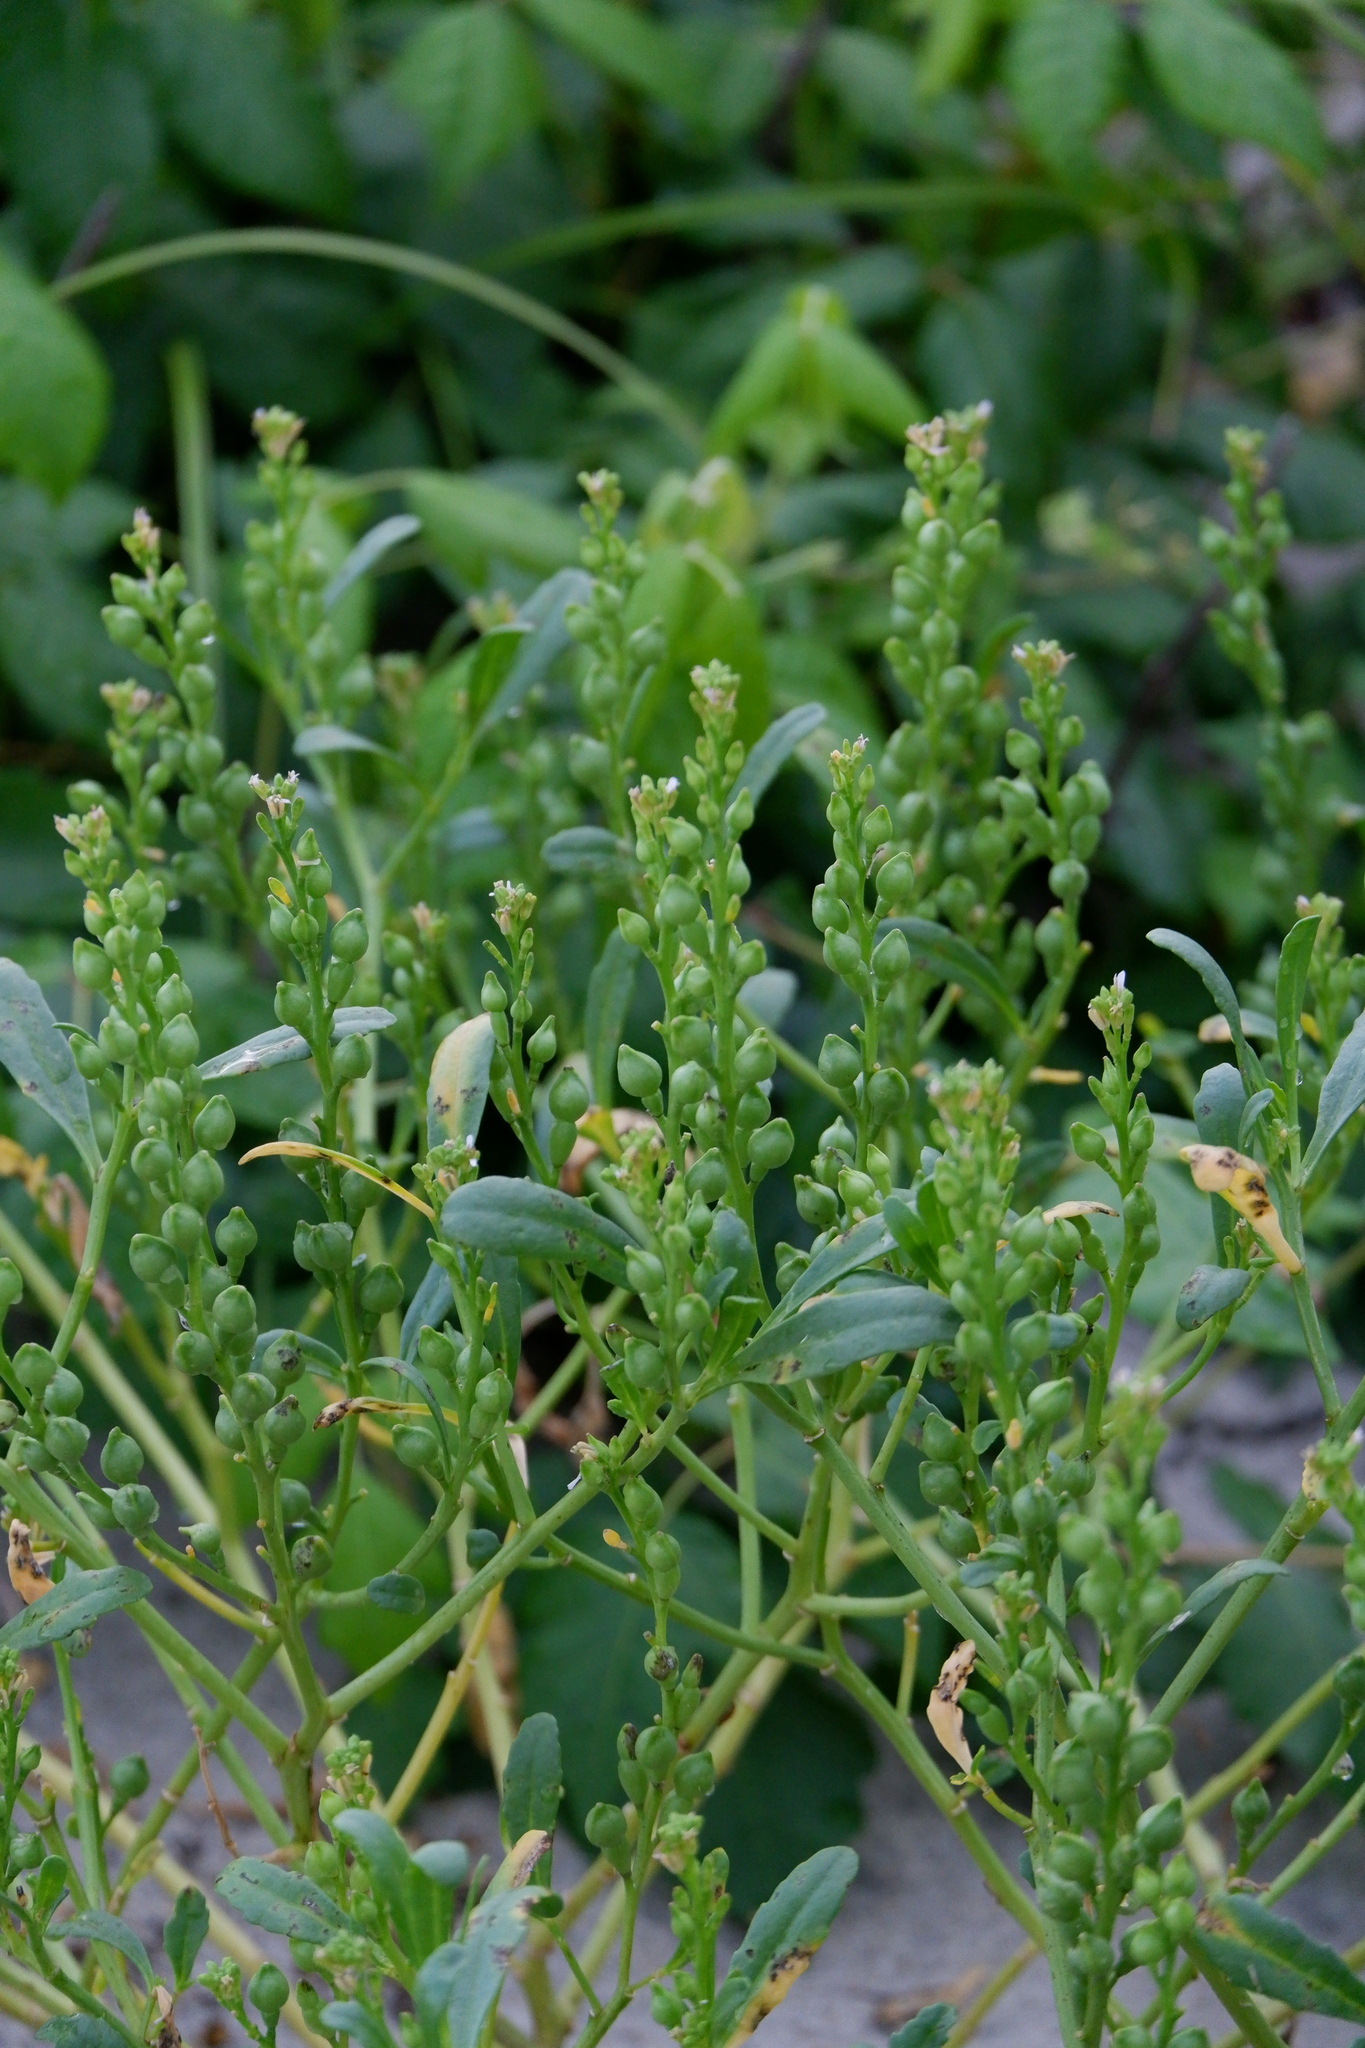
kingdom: Plantae
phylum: Tracheophyta
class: Magnoliopsida
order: Brassicales
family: Brassicaceae
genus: Cakile
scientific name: Cakile edentula
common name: American sea rocket
